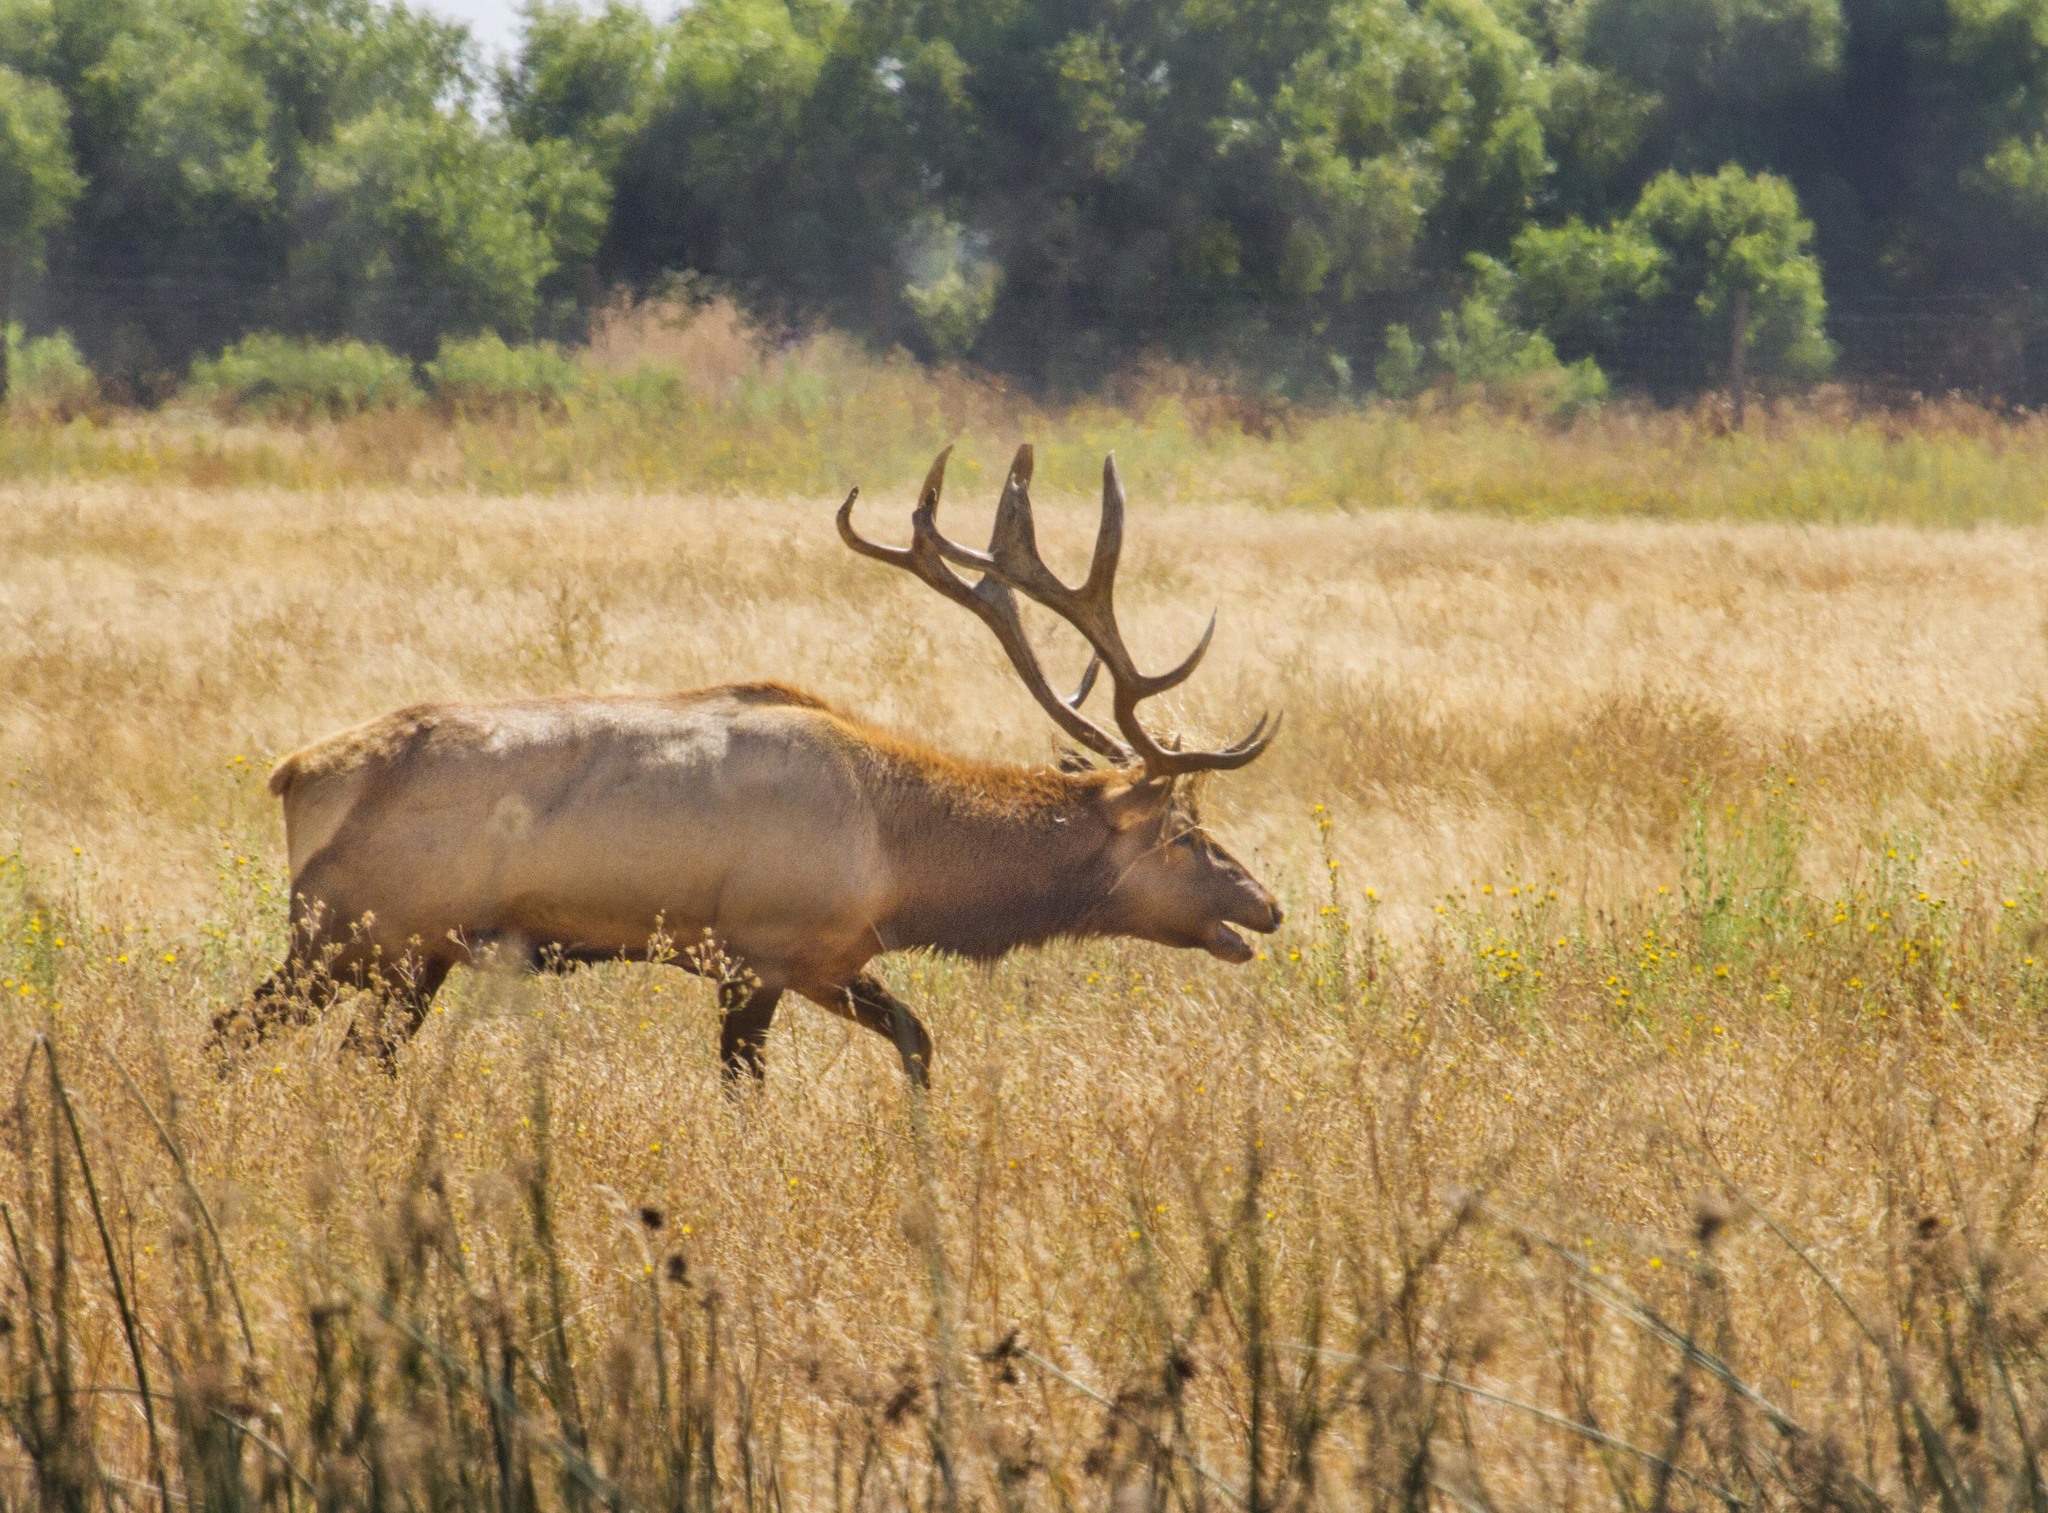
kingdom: Animalia
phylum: Chordata
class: Mammalia
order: Artiodactyla
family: Cervidae
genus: Cervus
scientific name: Cervus elaphus
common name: Red deer
